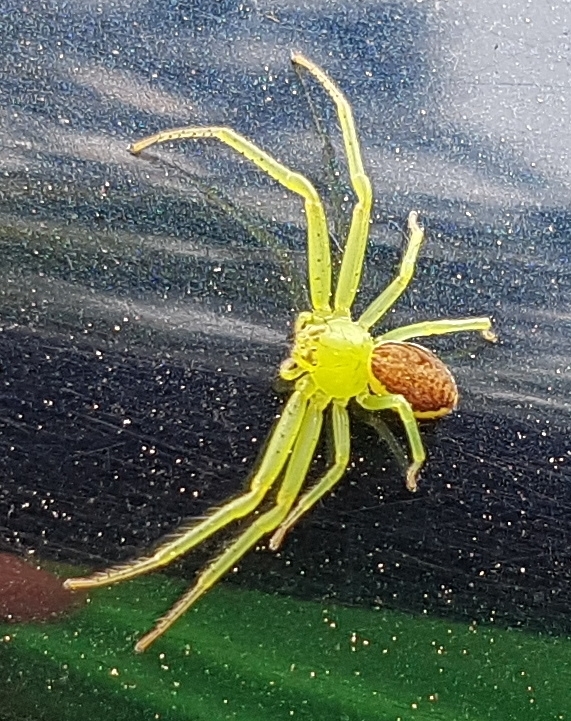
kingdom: Animalia
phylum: Arthropoda
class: Arachnida
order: Araneae
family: Thomisidae
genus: Diaea
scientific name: Diaea dorsata
